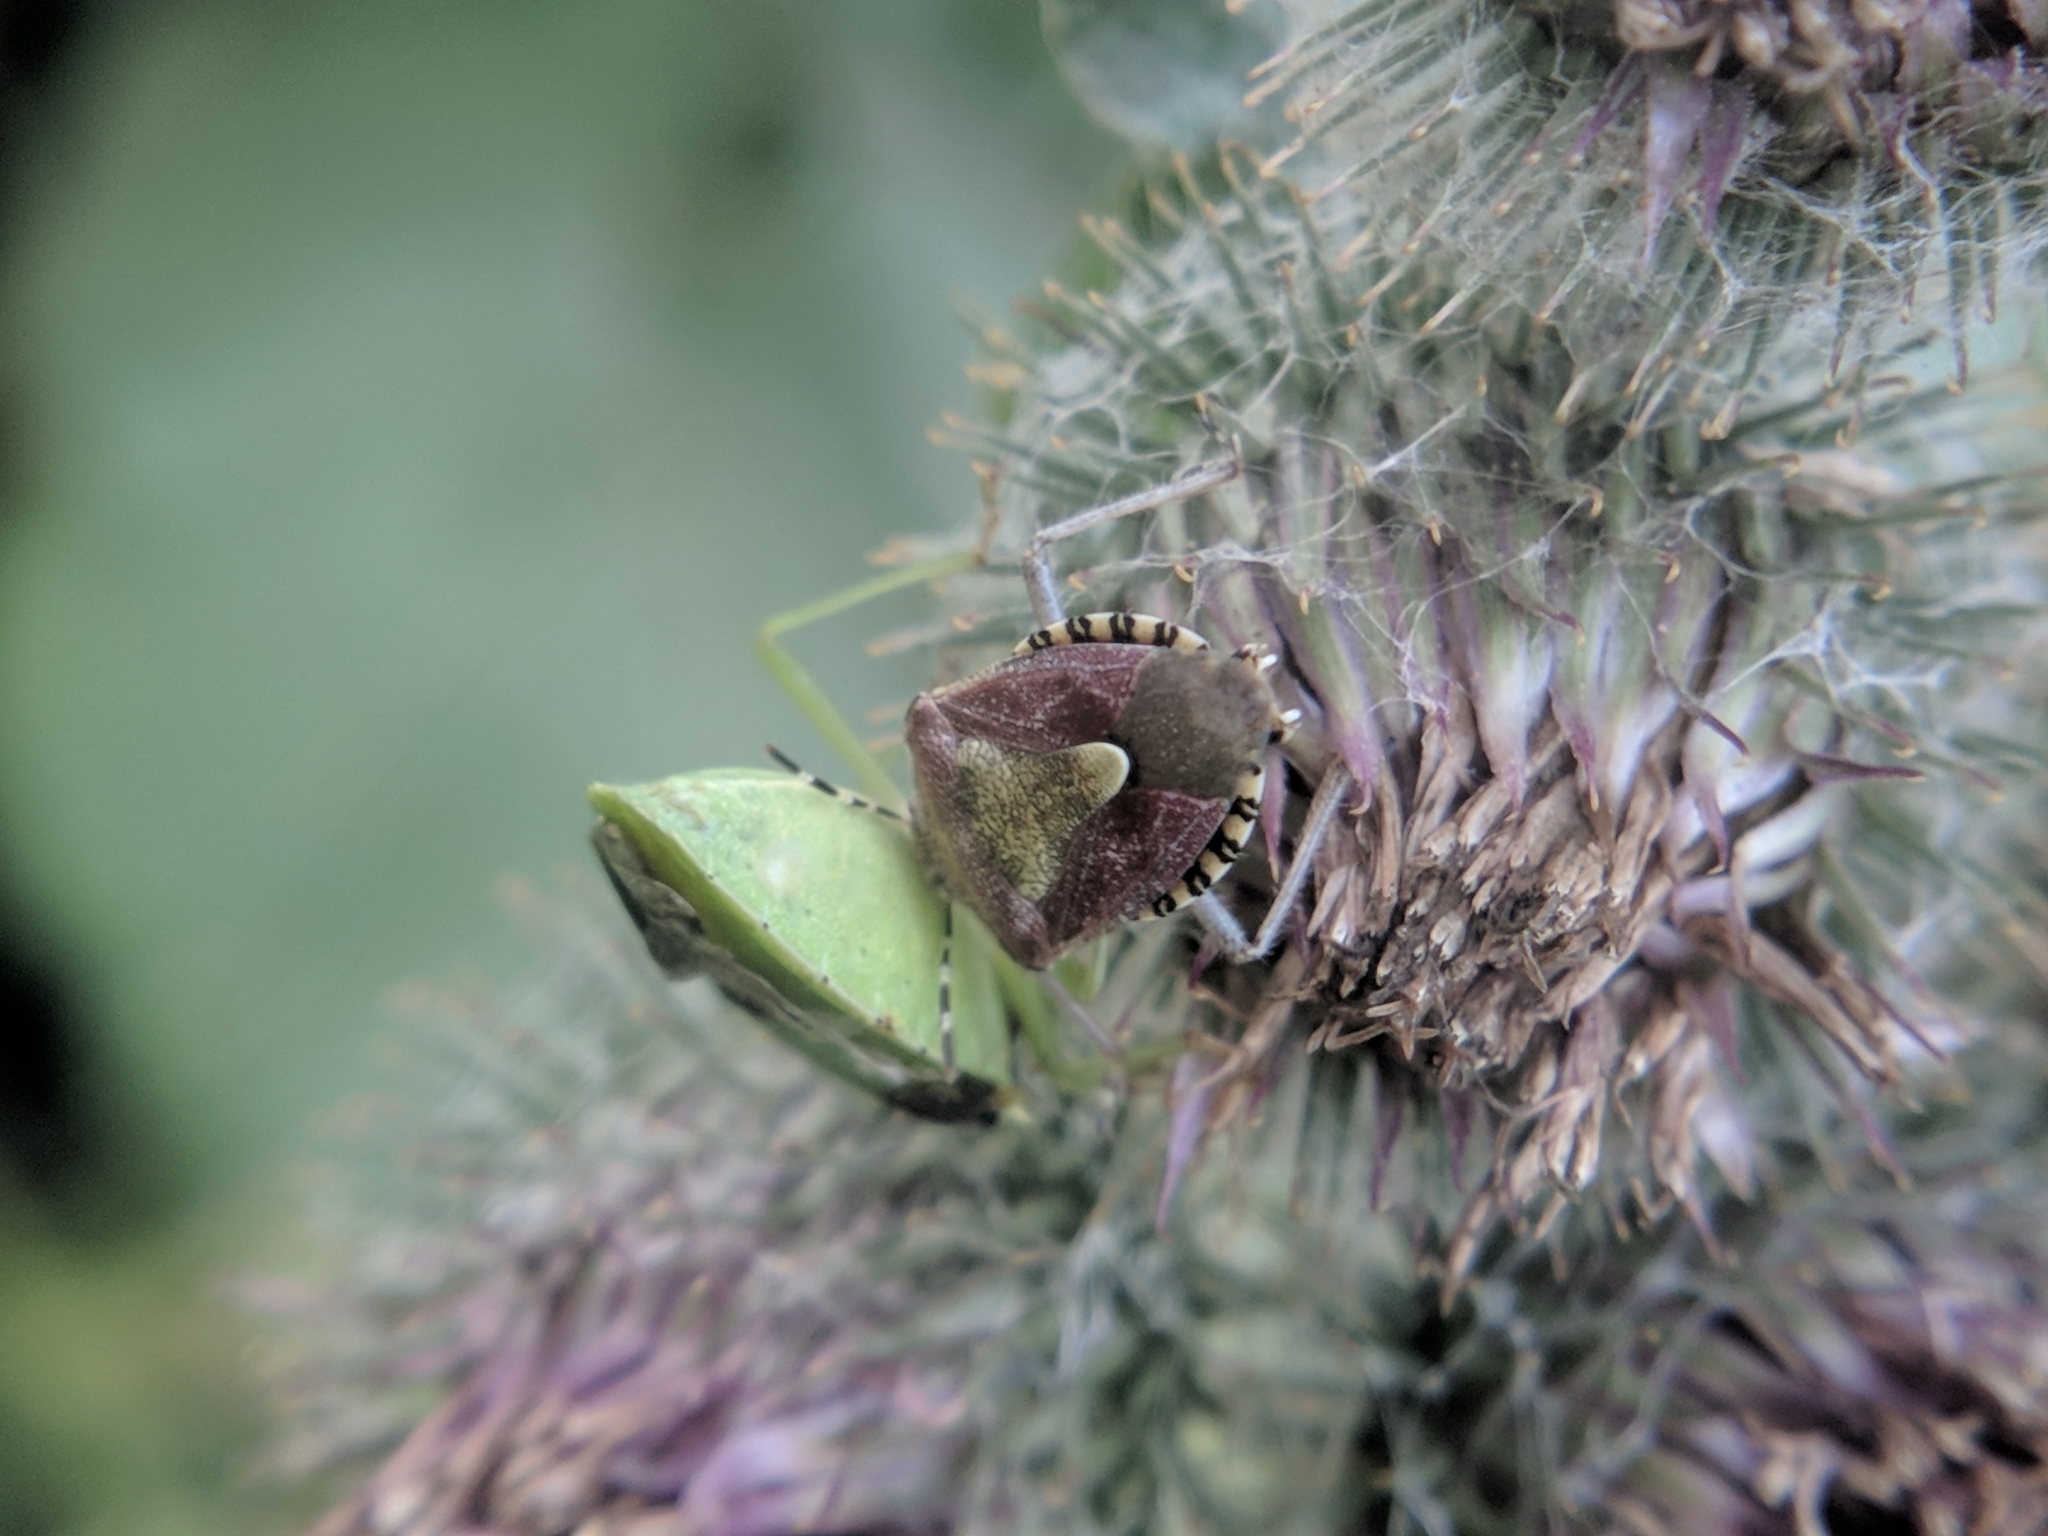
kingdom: Animalia
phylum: Arthropoda
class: Insecta
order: Hemiptera
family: Pentatomidae
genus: Dolycoris
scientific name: Dolycoris baccarum
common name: Sloe bug
